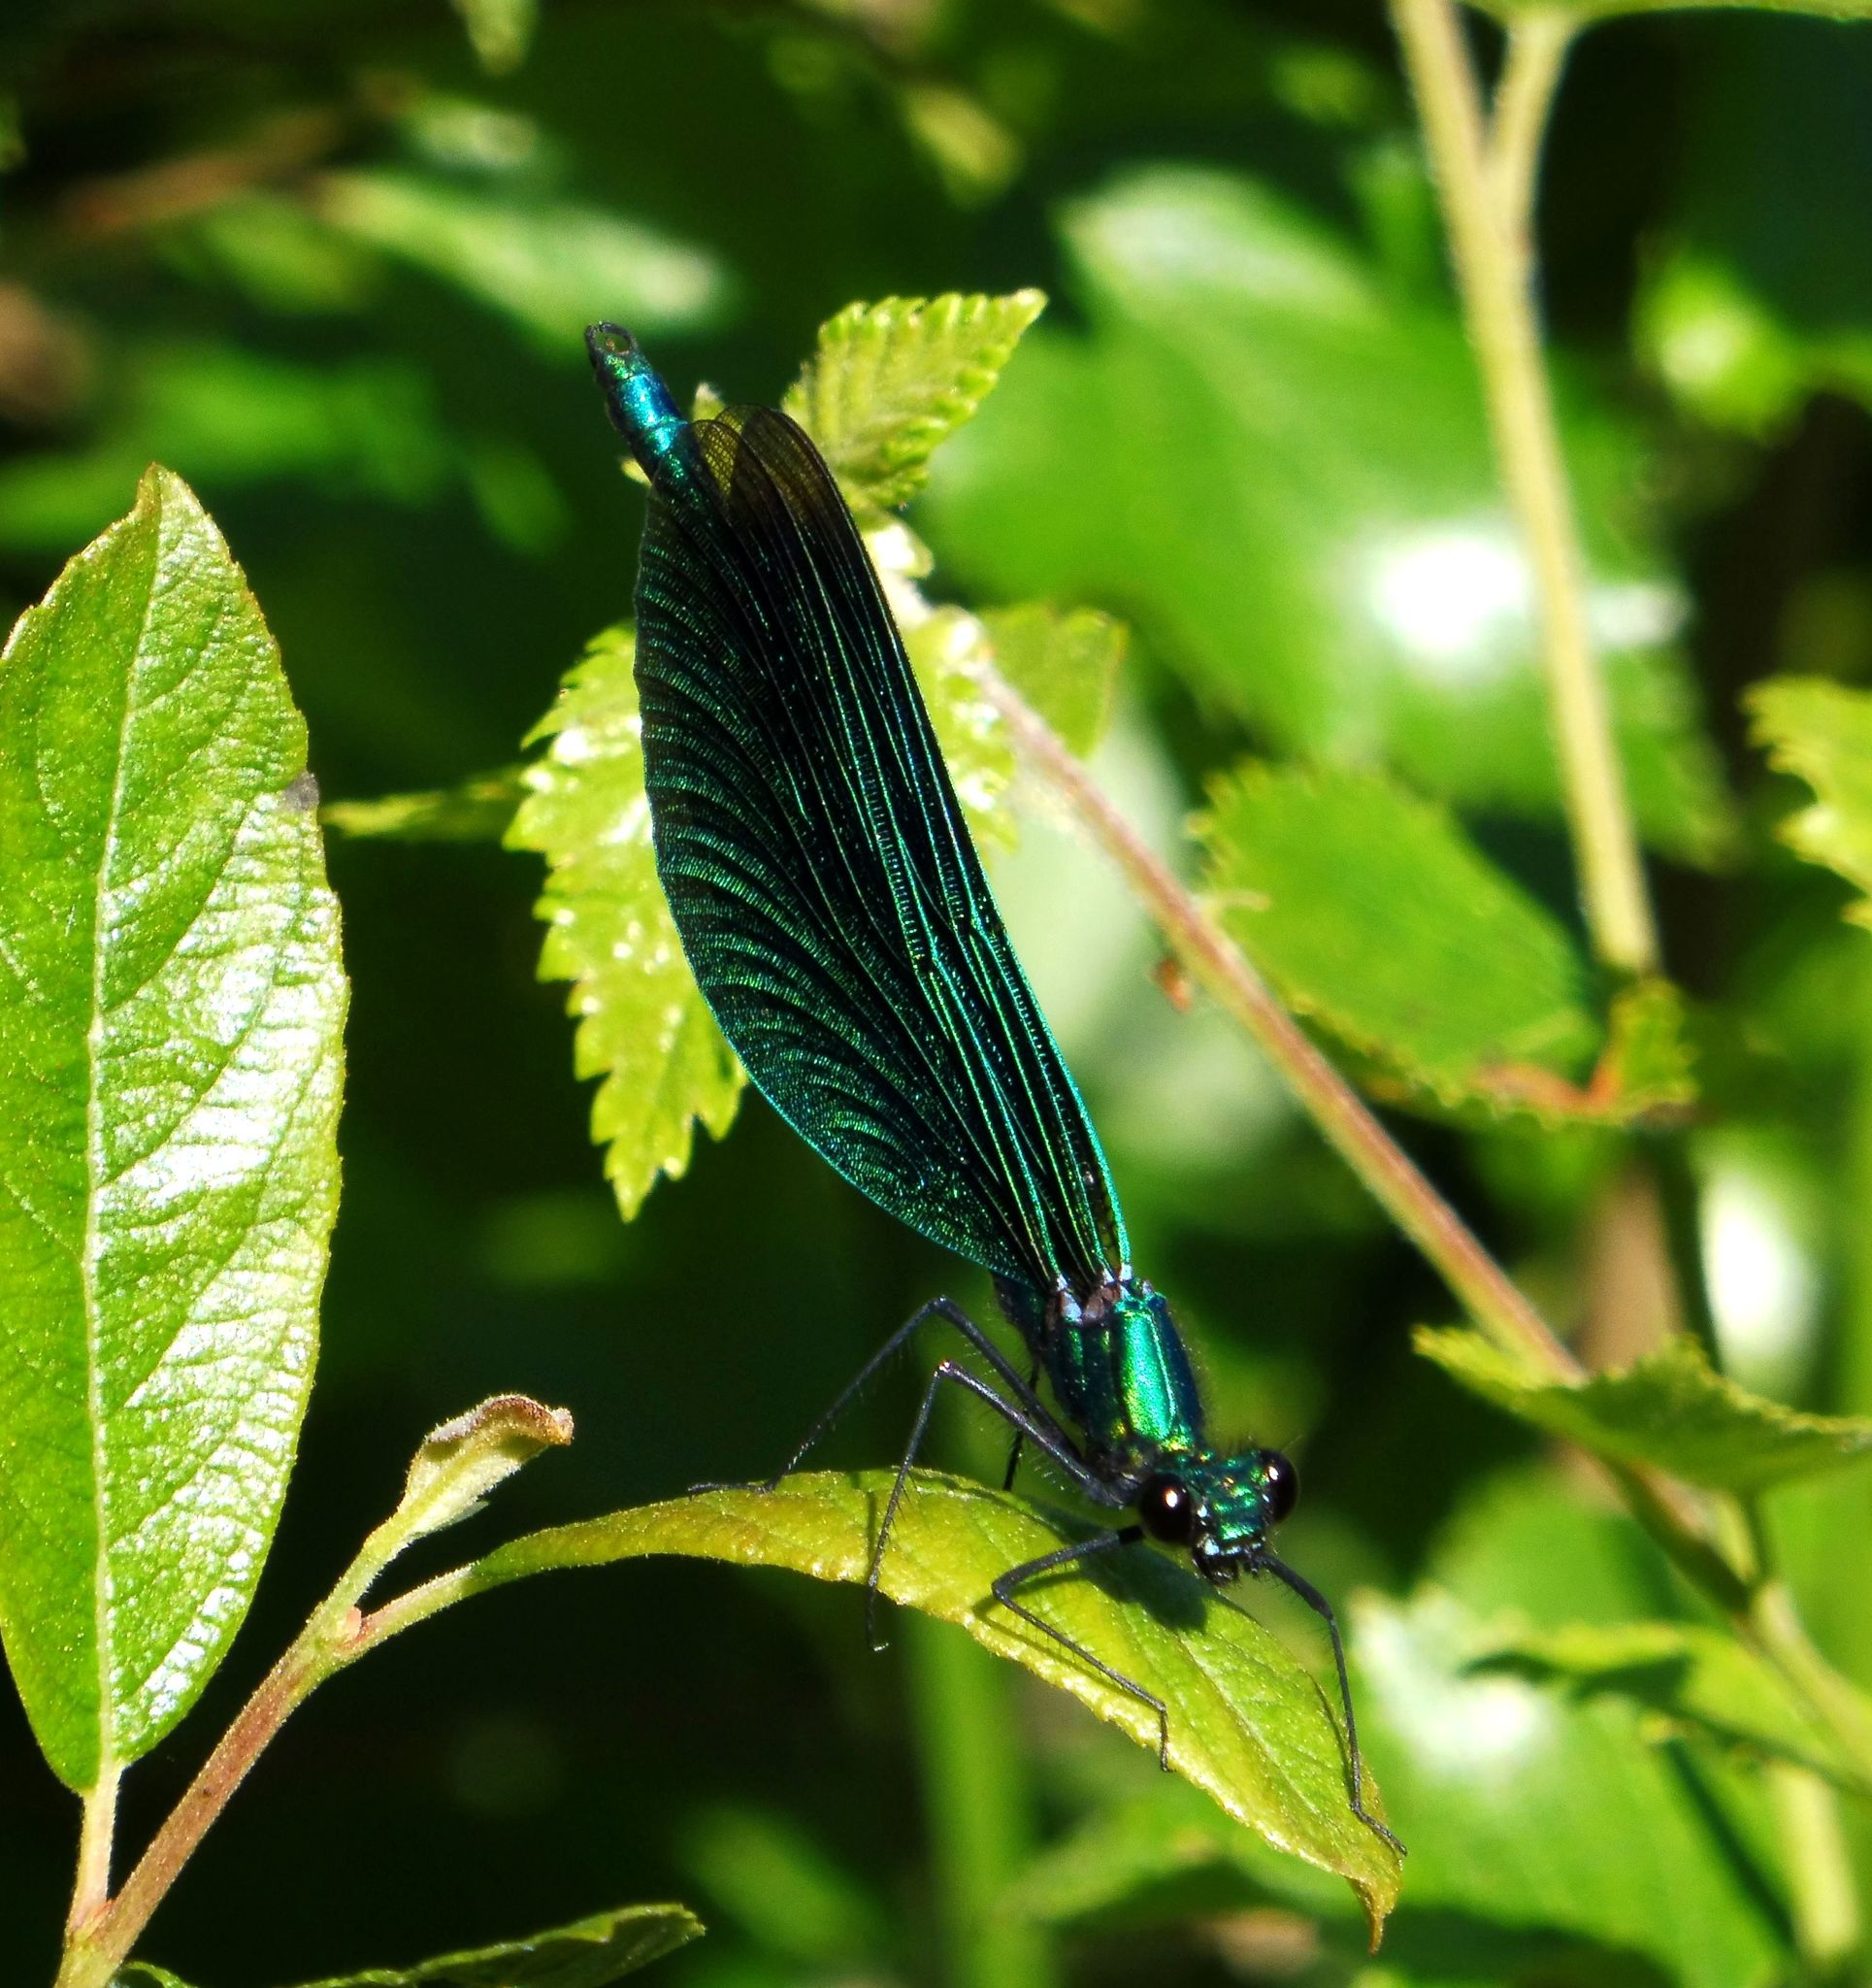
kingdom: Animalia
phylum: Arthropoda
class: Insecta
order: Odonata
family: Calopterygidae
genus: Calopteryx
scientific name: Calopteryx virgo
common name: Beautiful demoiselle
